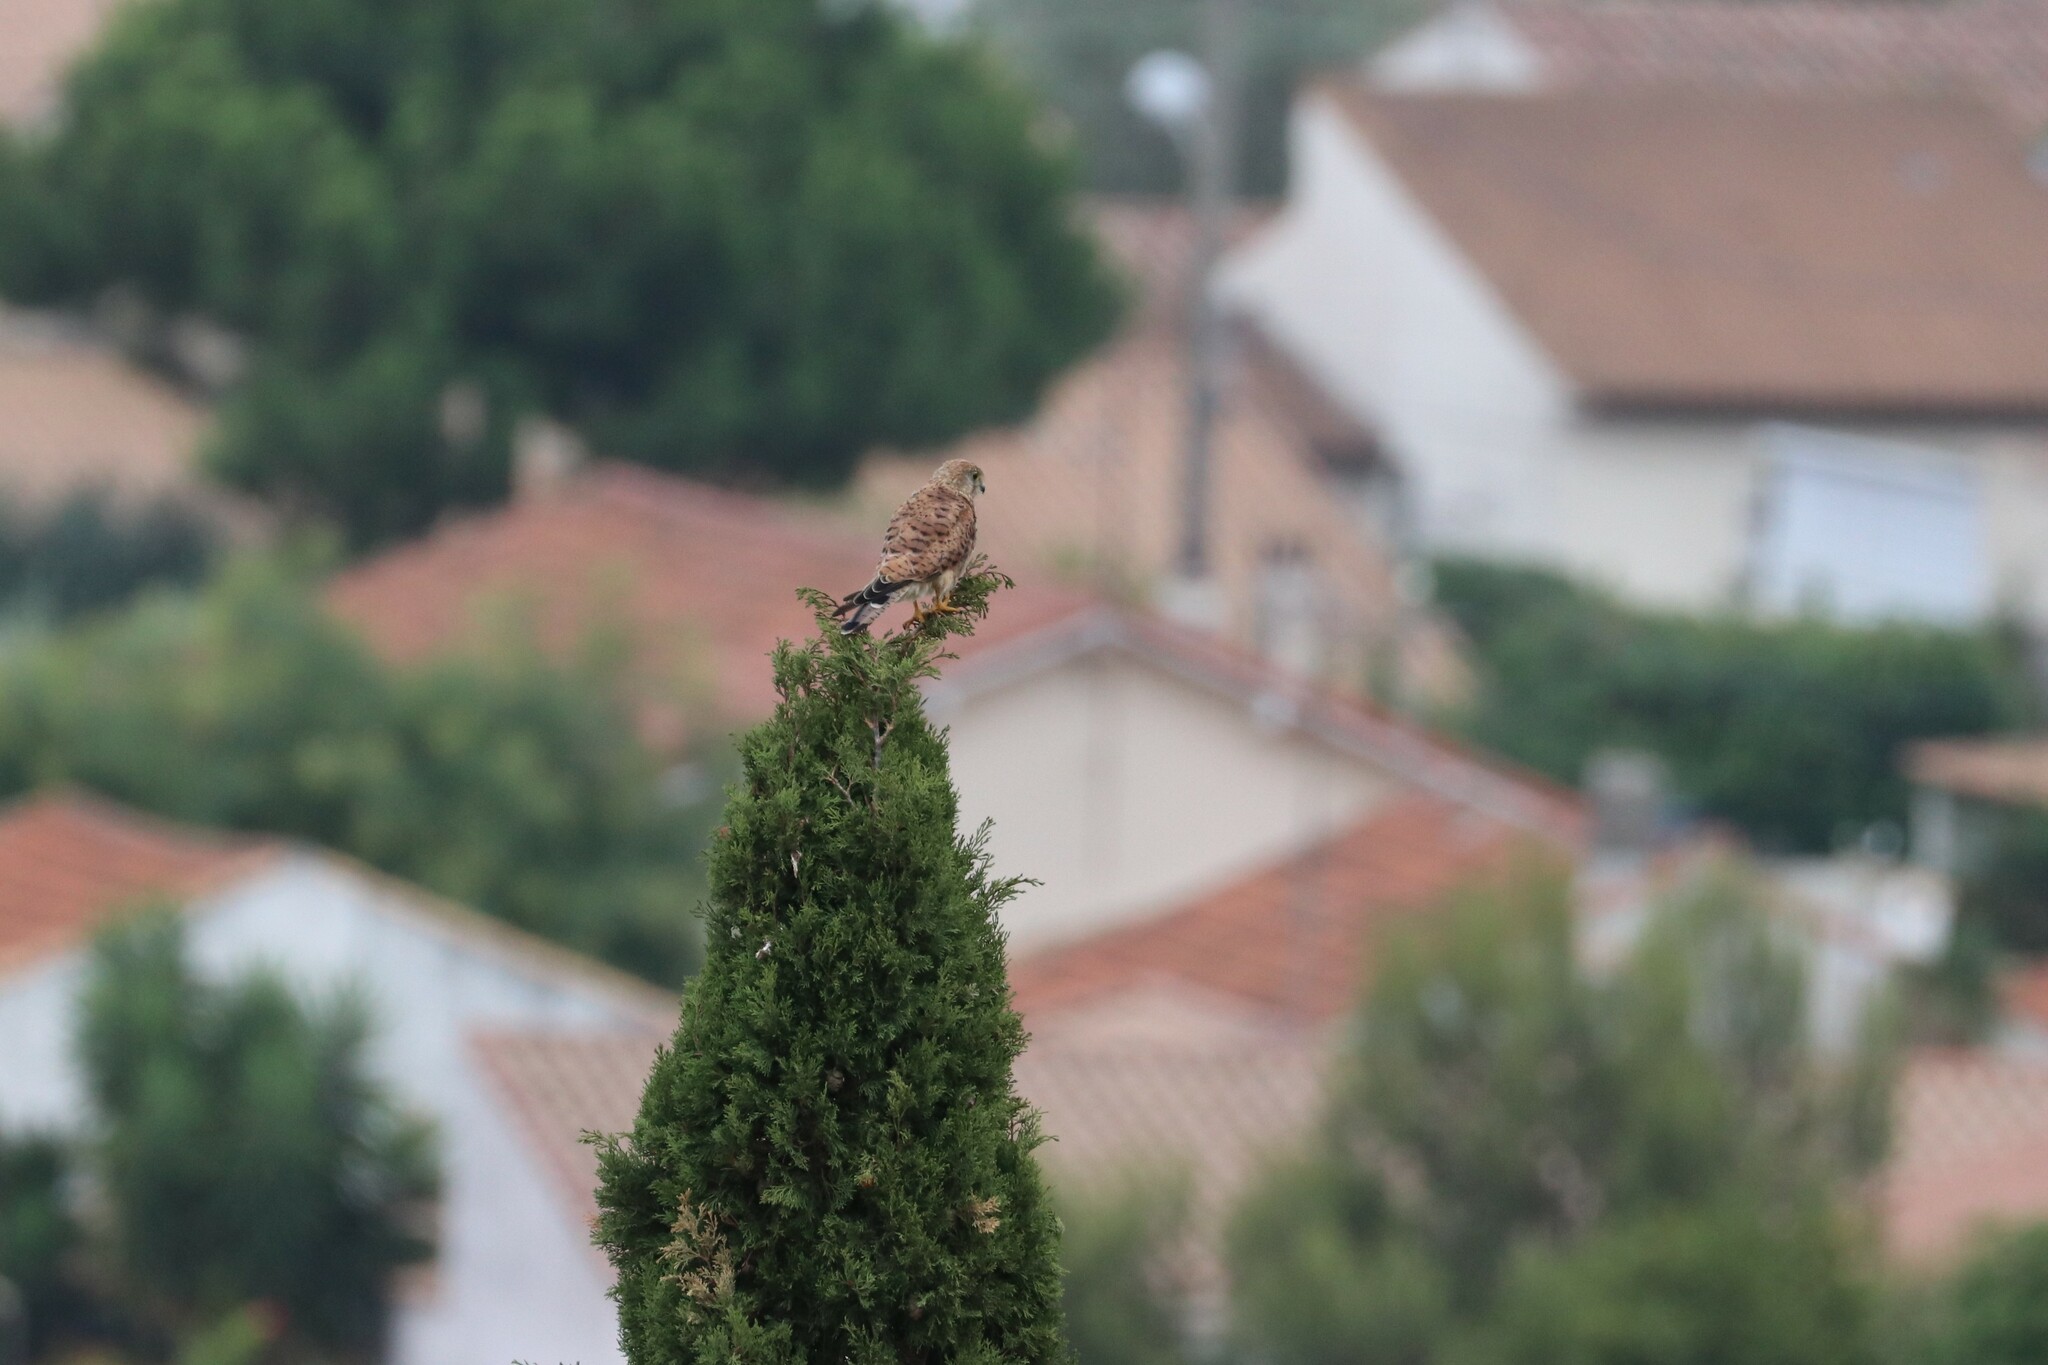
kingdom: Animalia
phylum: Chordata
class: Aves
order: Falconiformes
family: Falconidae
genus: Falco
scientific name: Falco tinnunculus
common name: Common kestrel
